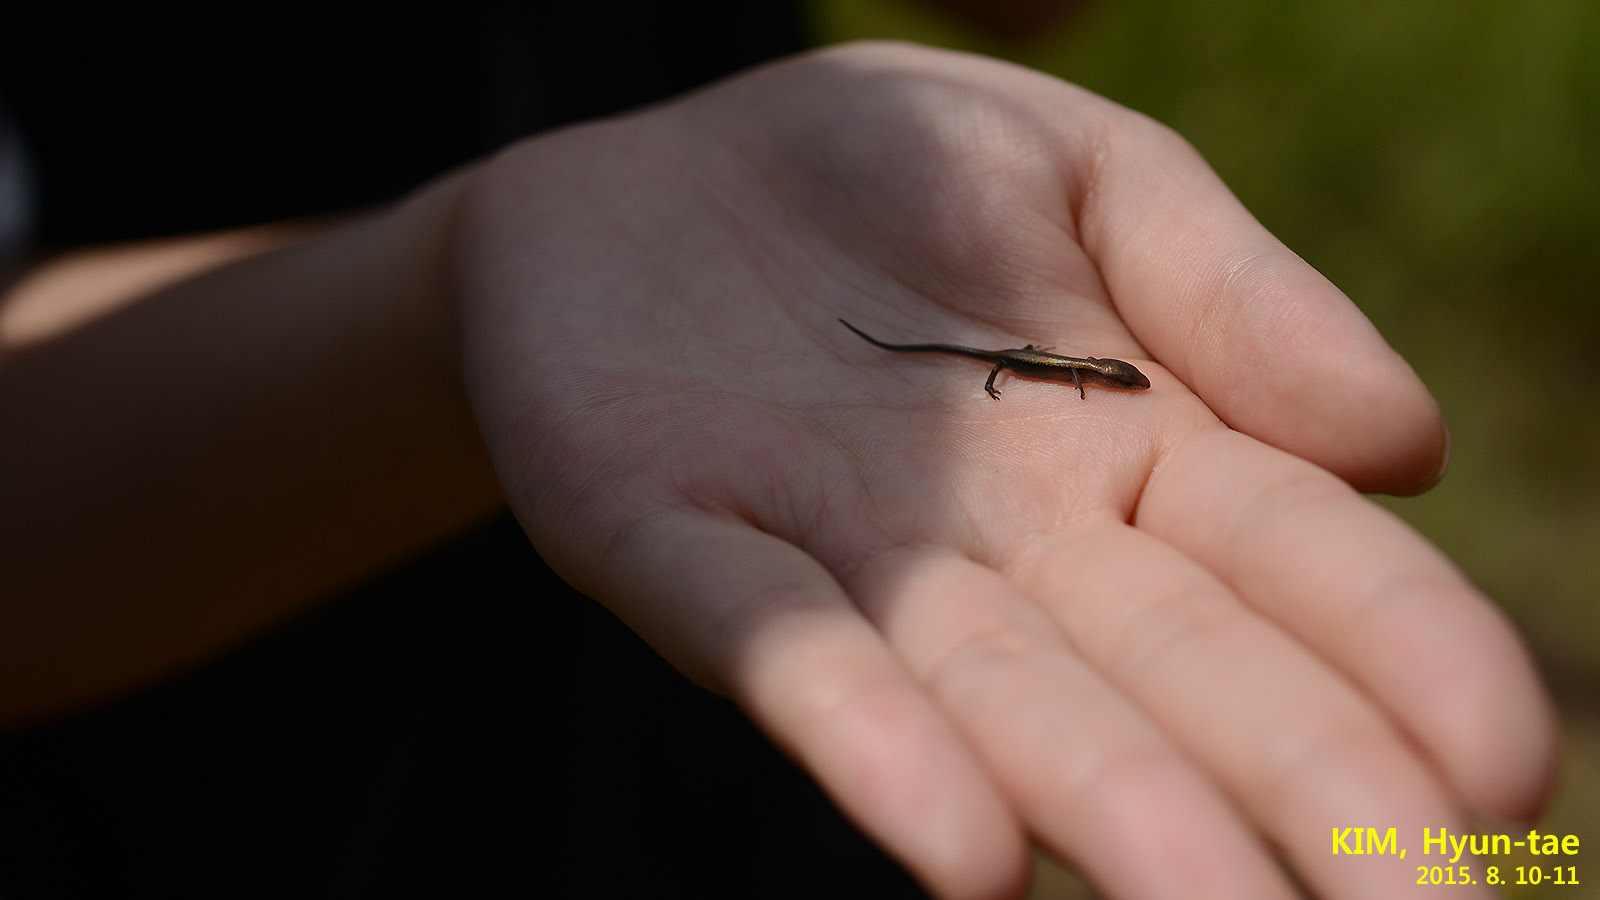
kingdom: Animalia
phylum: Chordata
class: Squamata
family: Scincidae
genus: Scincella
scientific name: Scincella vandenburghi
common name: Tsushima smooth skink
